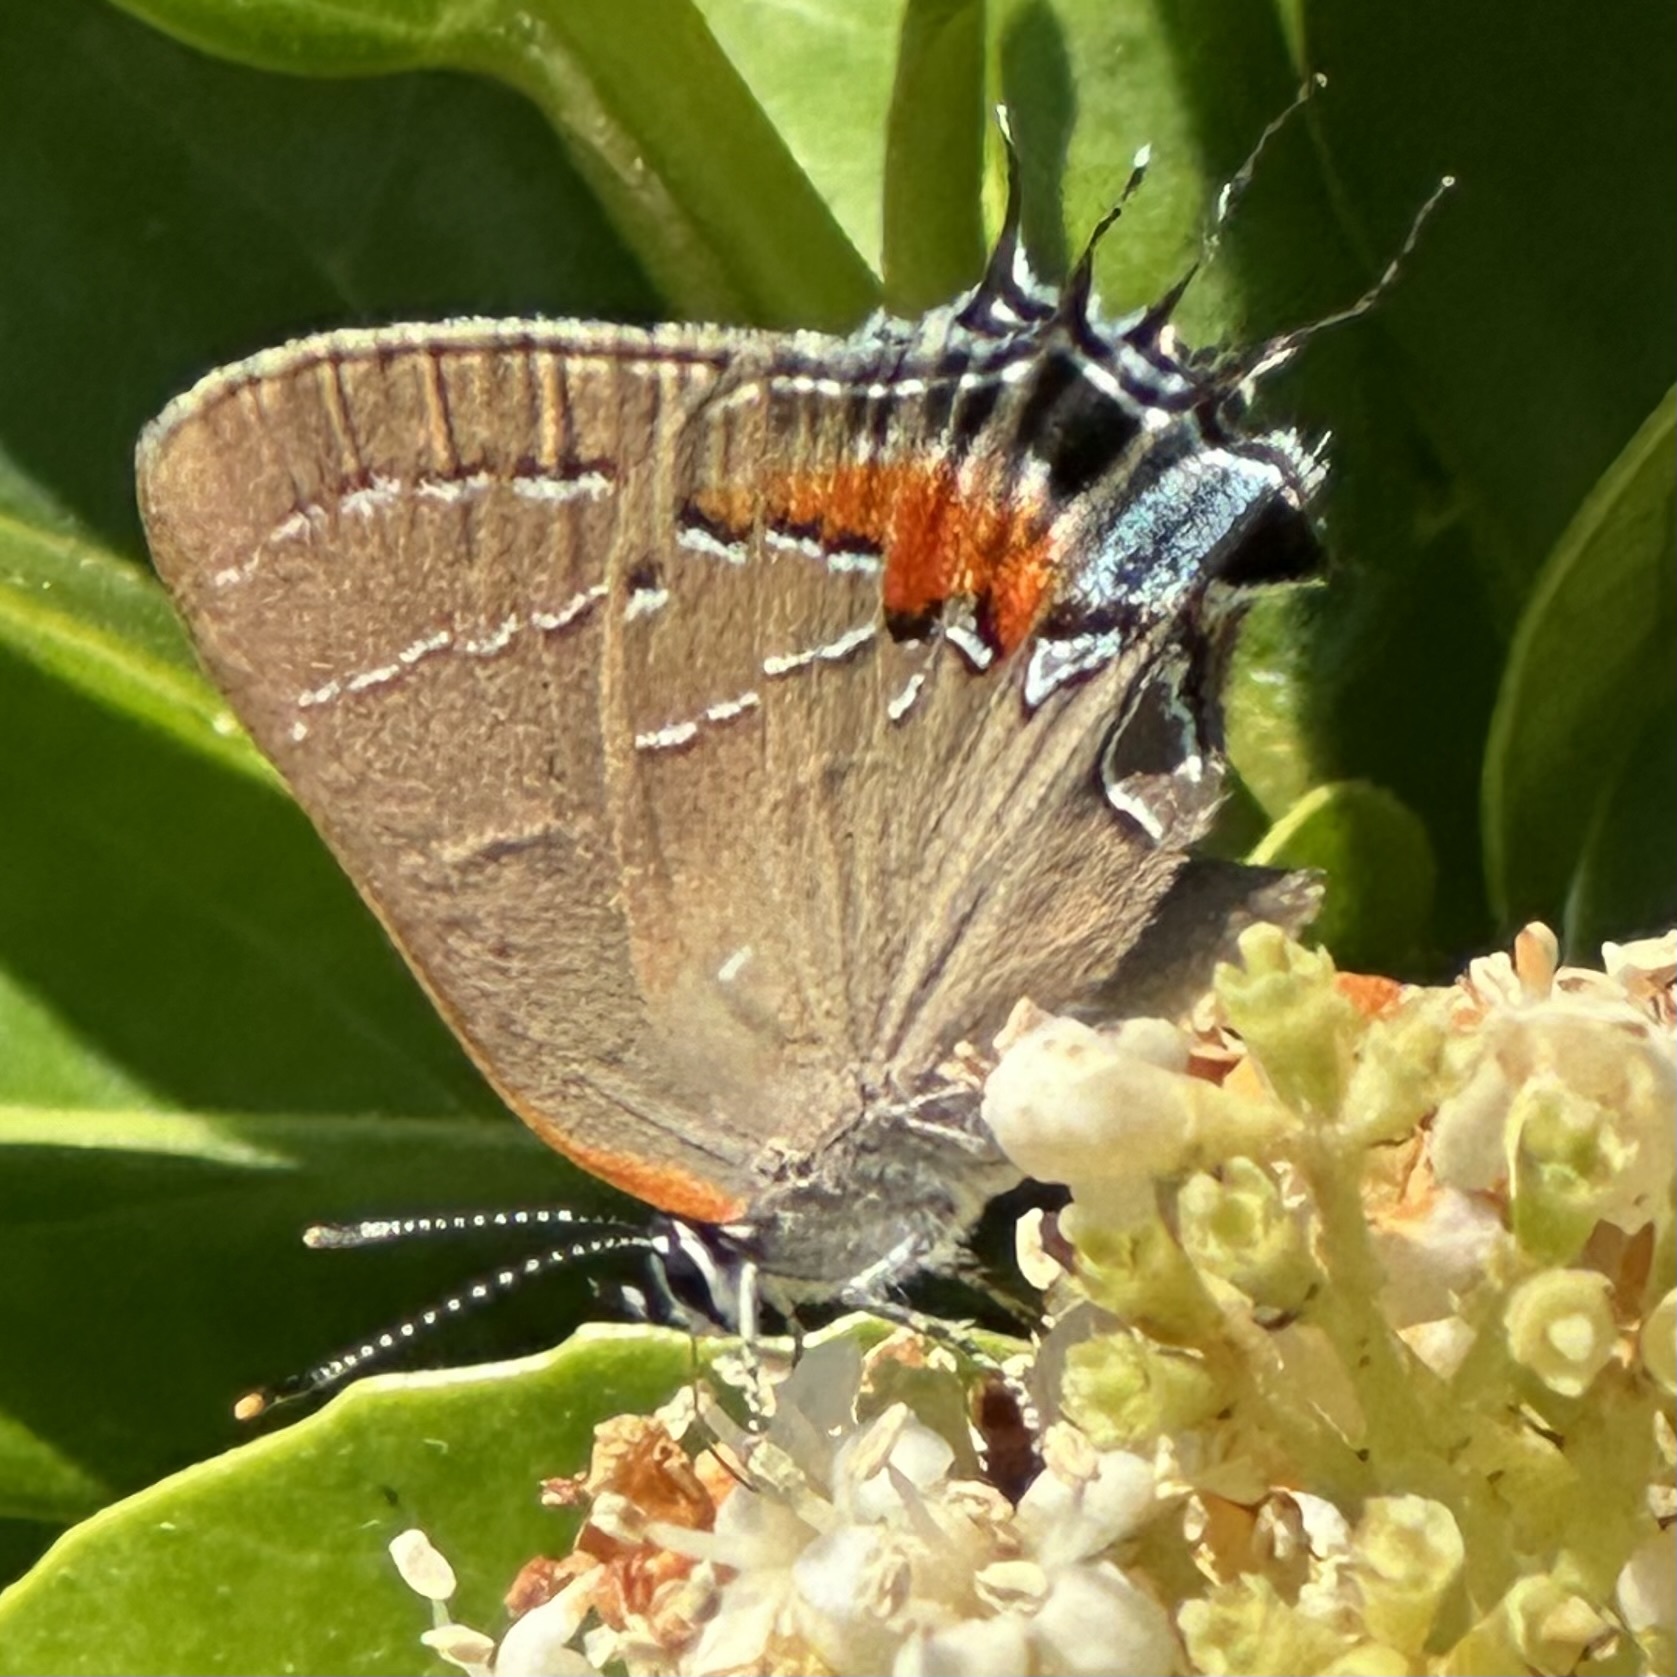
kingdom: Animalia
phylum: Arthropoda
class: Insecta
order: Lepidoptera
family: Lycaenidae
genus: Fixsenia
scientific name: Fixsenia favonius
